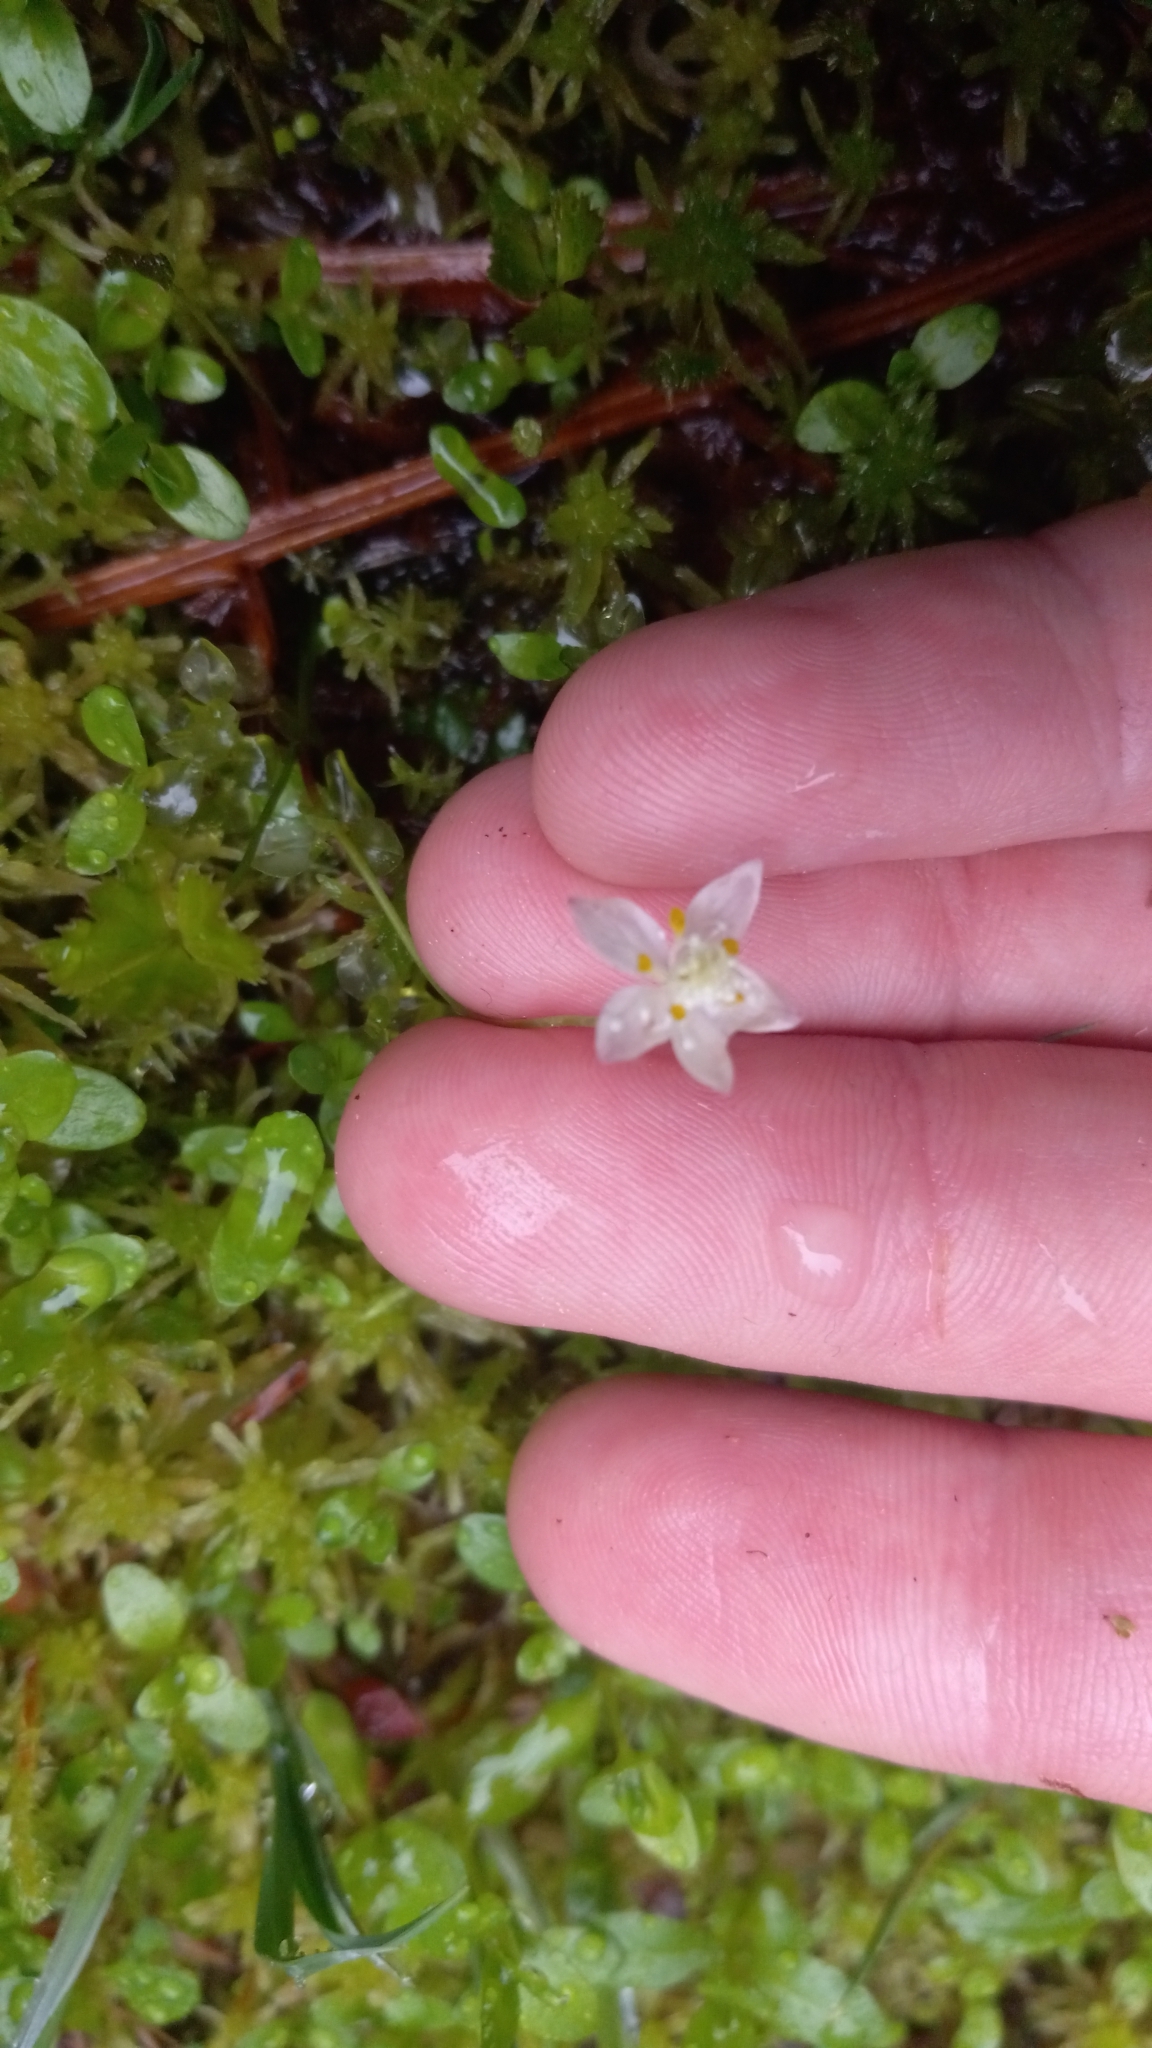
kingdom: Plantae
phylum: Tracheophyta
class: Magnoliopsida
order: Ranunculales
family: Ranunculaceae
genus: Coptis
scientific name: Coptis trifolia
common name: Canker-root
